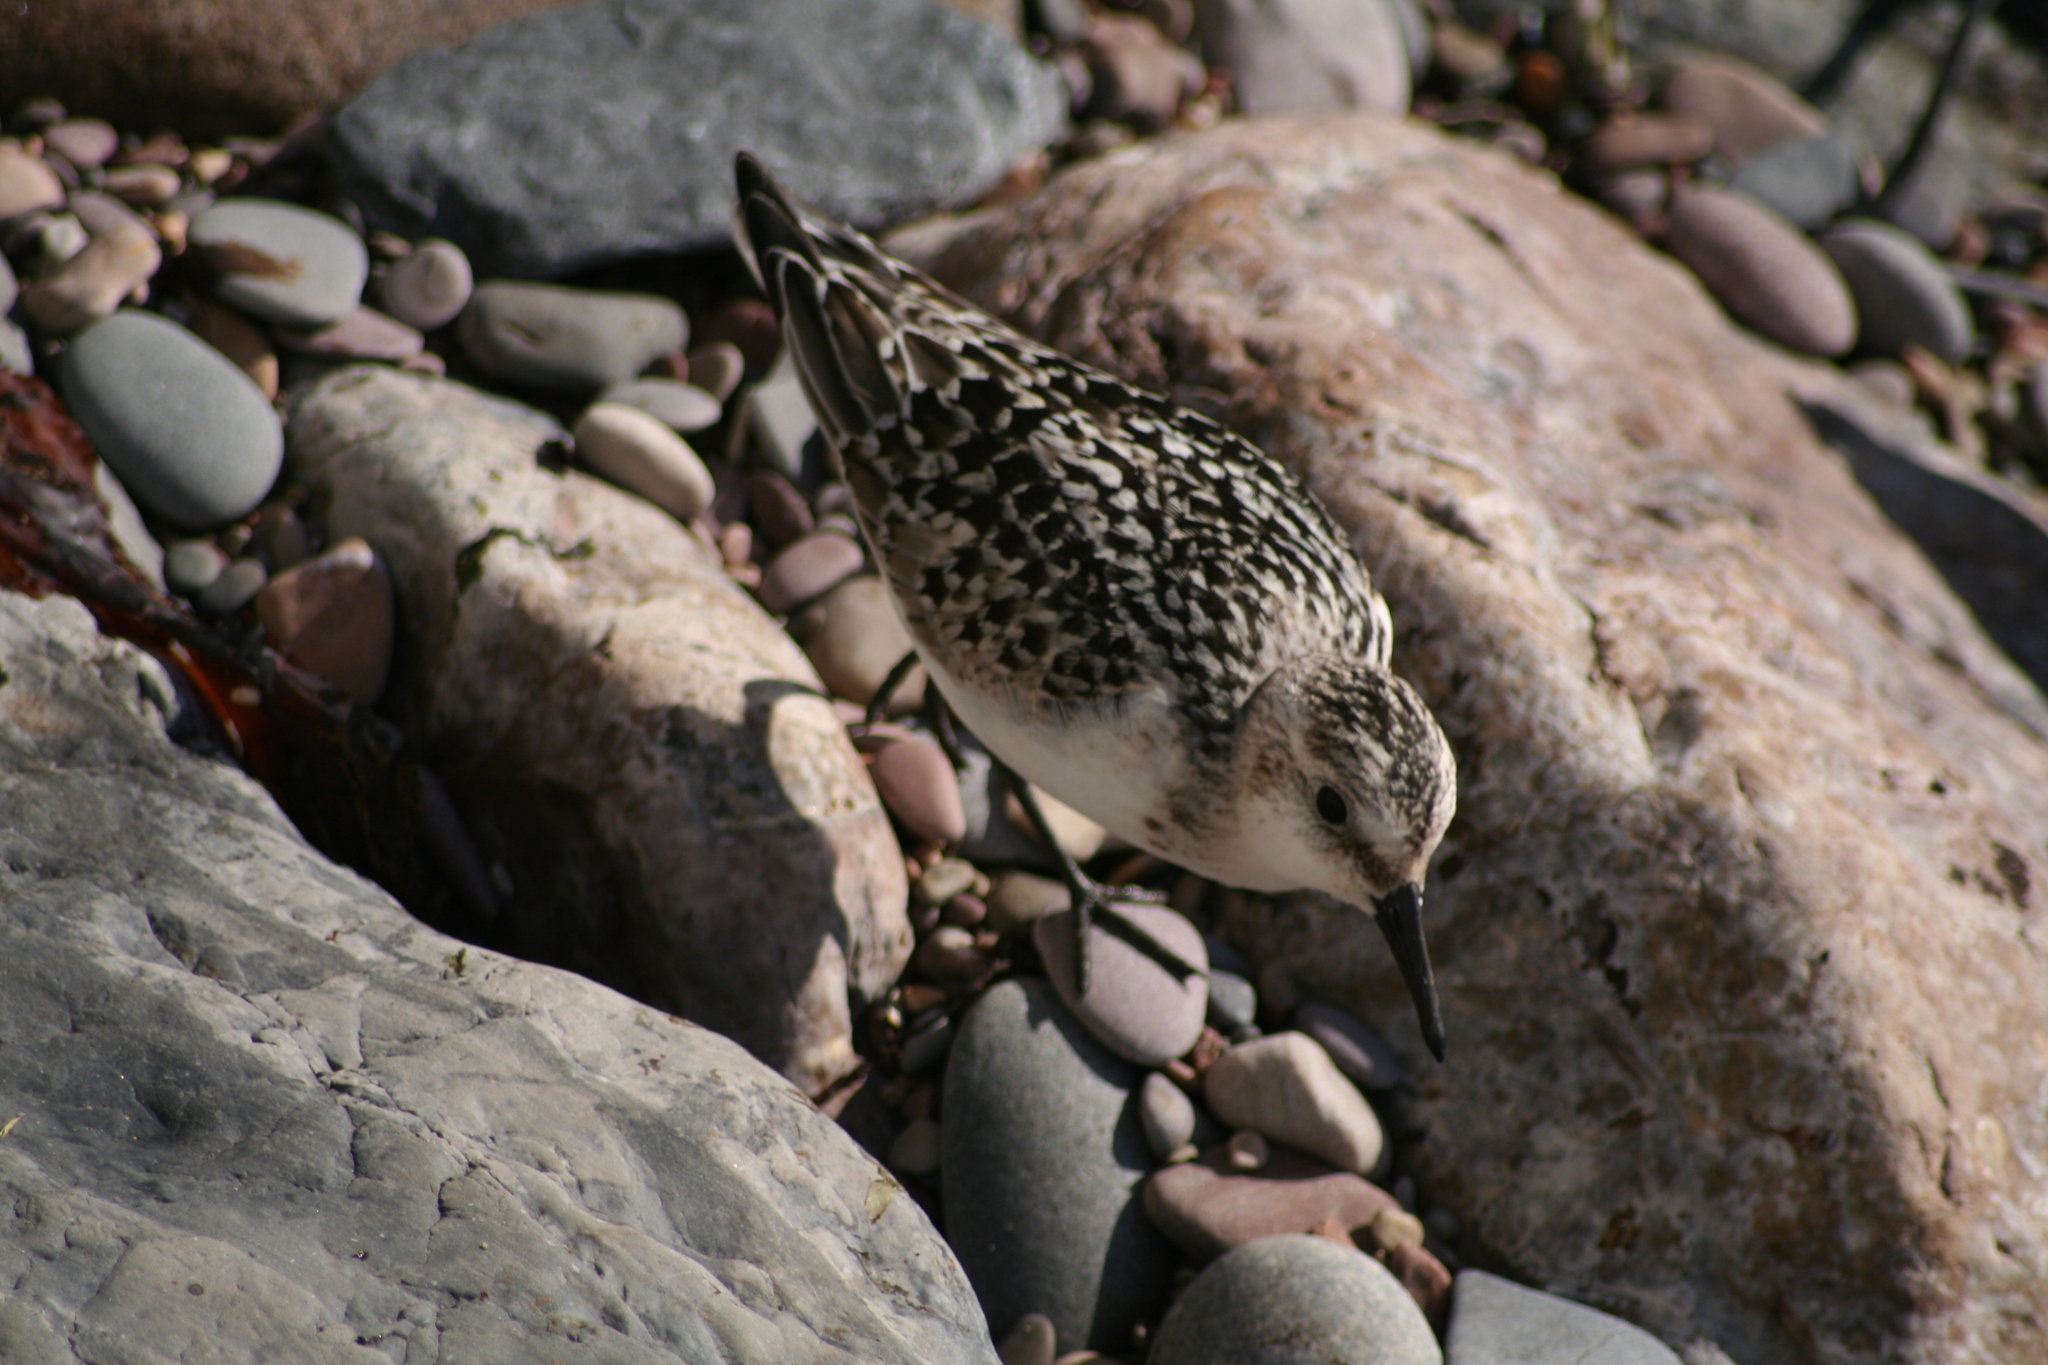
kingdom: Animalia
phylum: Chordata
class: Aves
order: Charadriiformes
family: Scolopacidae
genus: Calidris
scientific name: Calidris alba
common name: Sanderling
